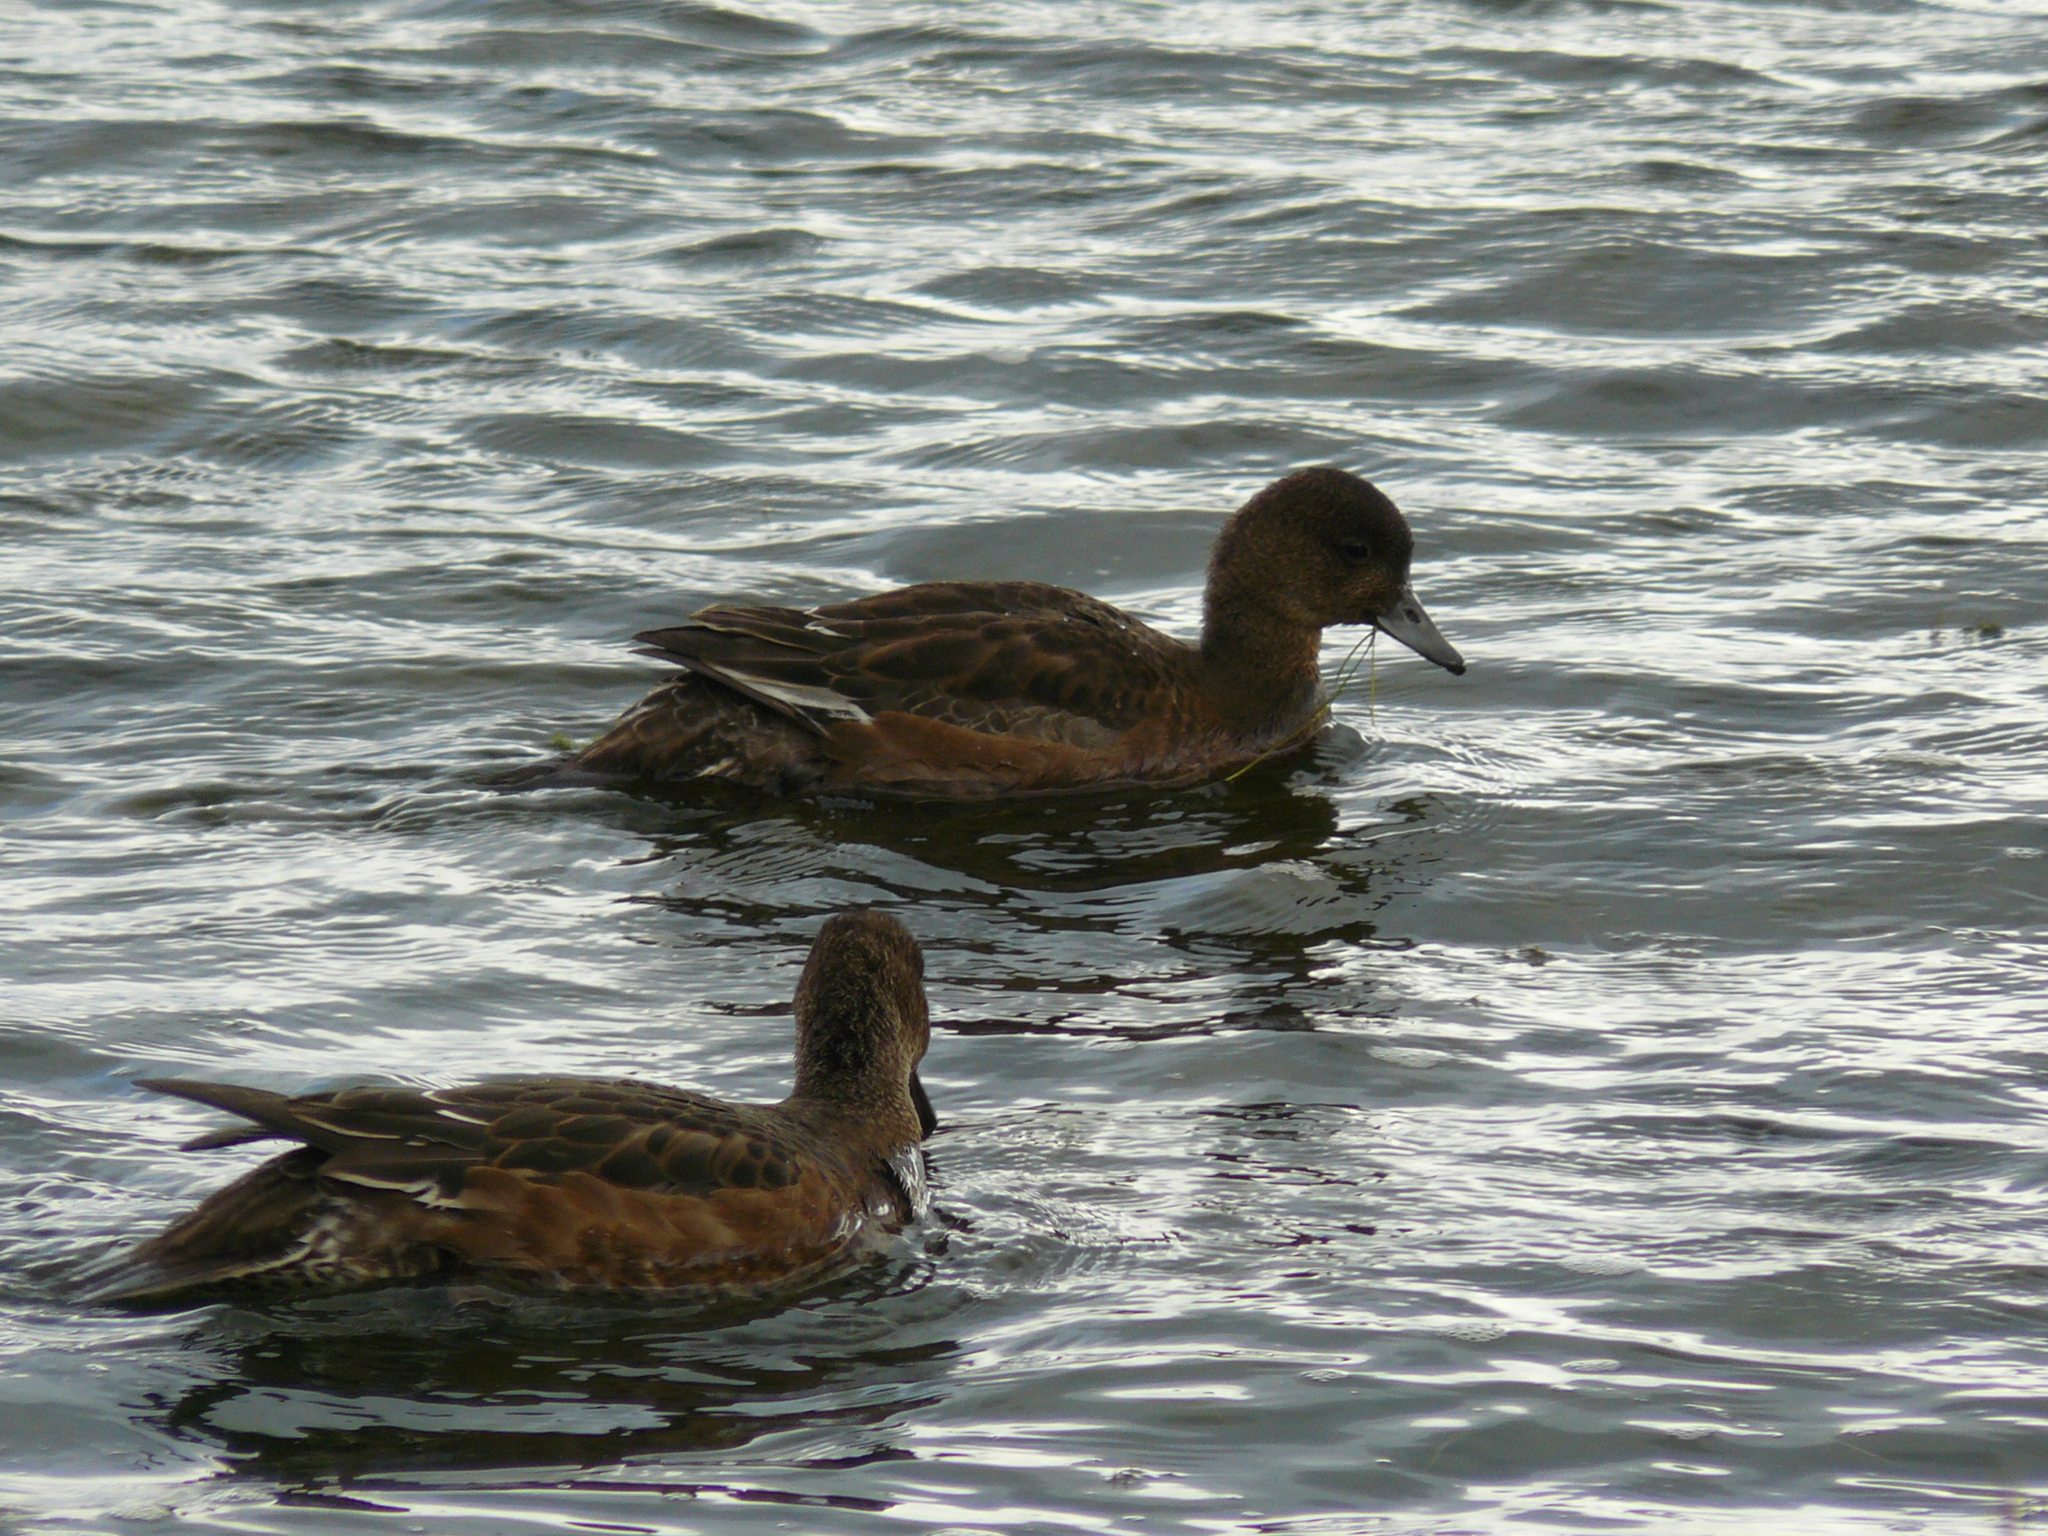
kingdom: Animalia
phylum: Chordata
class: Aves
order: Anseriformes
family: Anatidae
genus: Mareca
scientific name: Mareca penelope
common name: Eurasian wigeon
